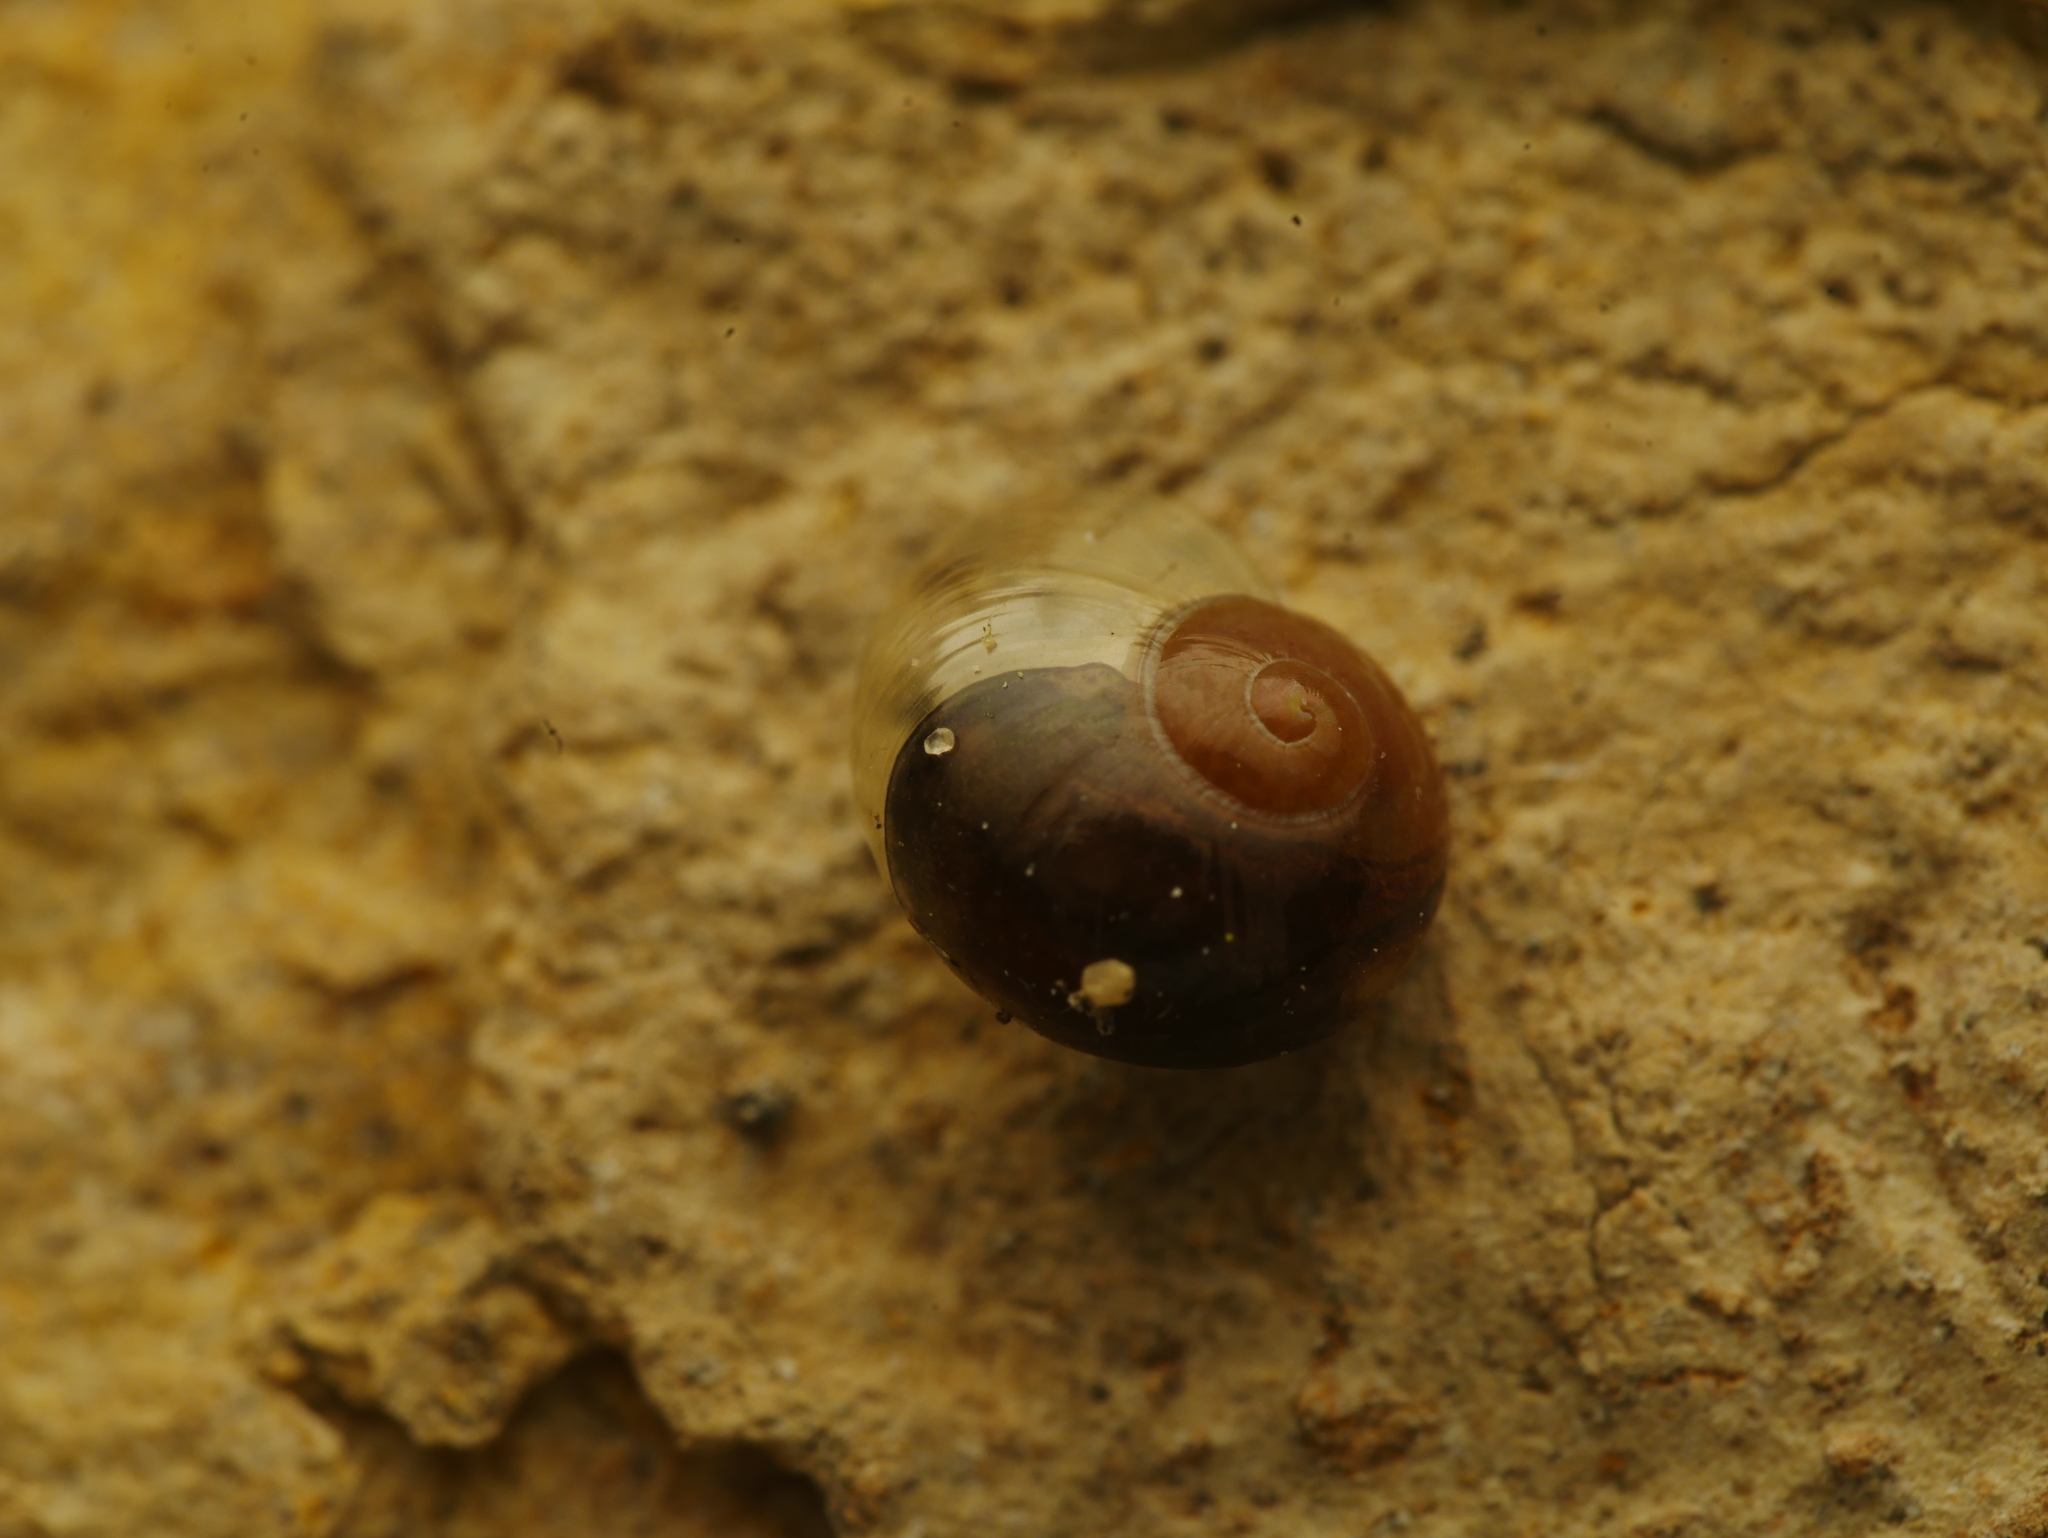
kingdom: Animalia
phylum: Mollusca
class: Gastropoda
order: Stylommatophora
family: Vitrinidae
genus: Vitrina
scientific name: Vitrina pellucida
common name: Pellucid glass snail
